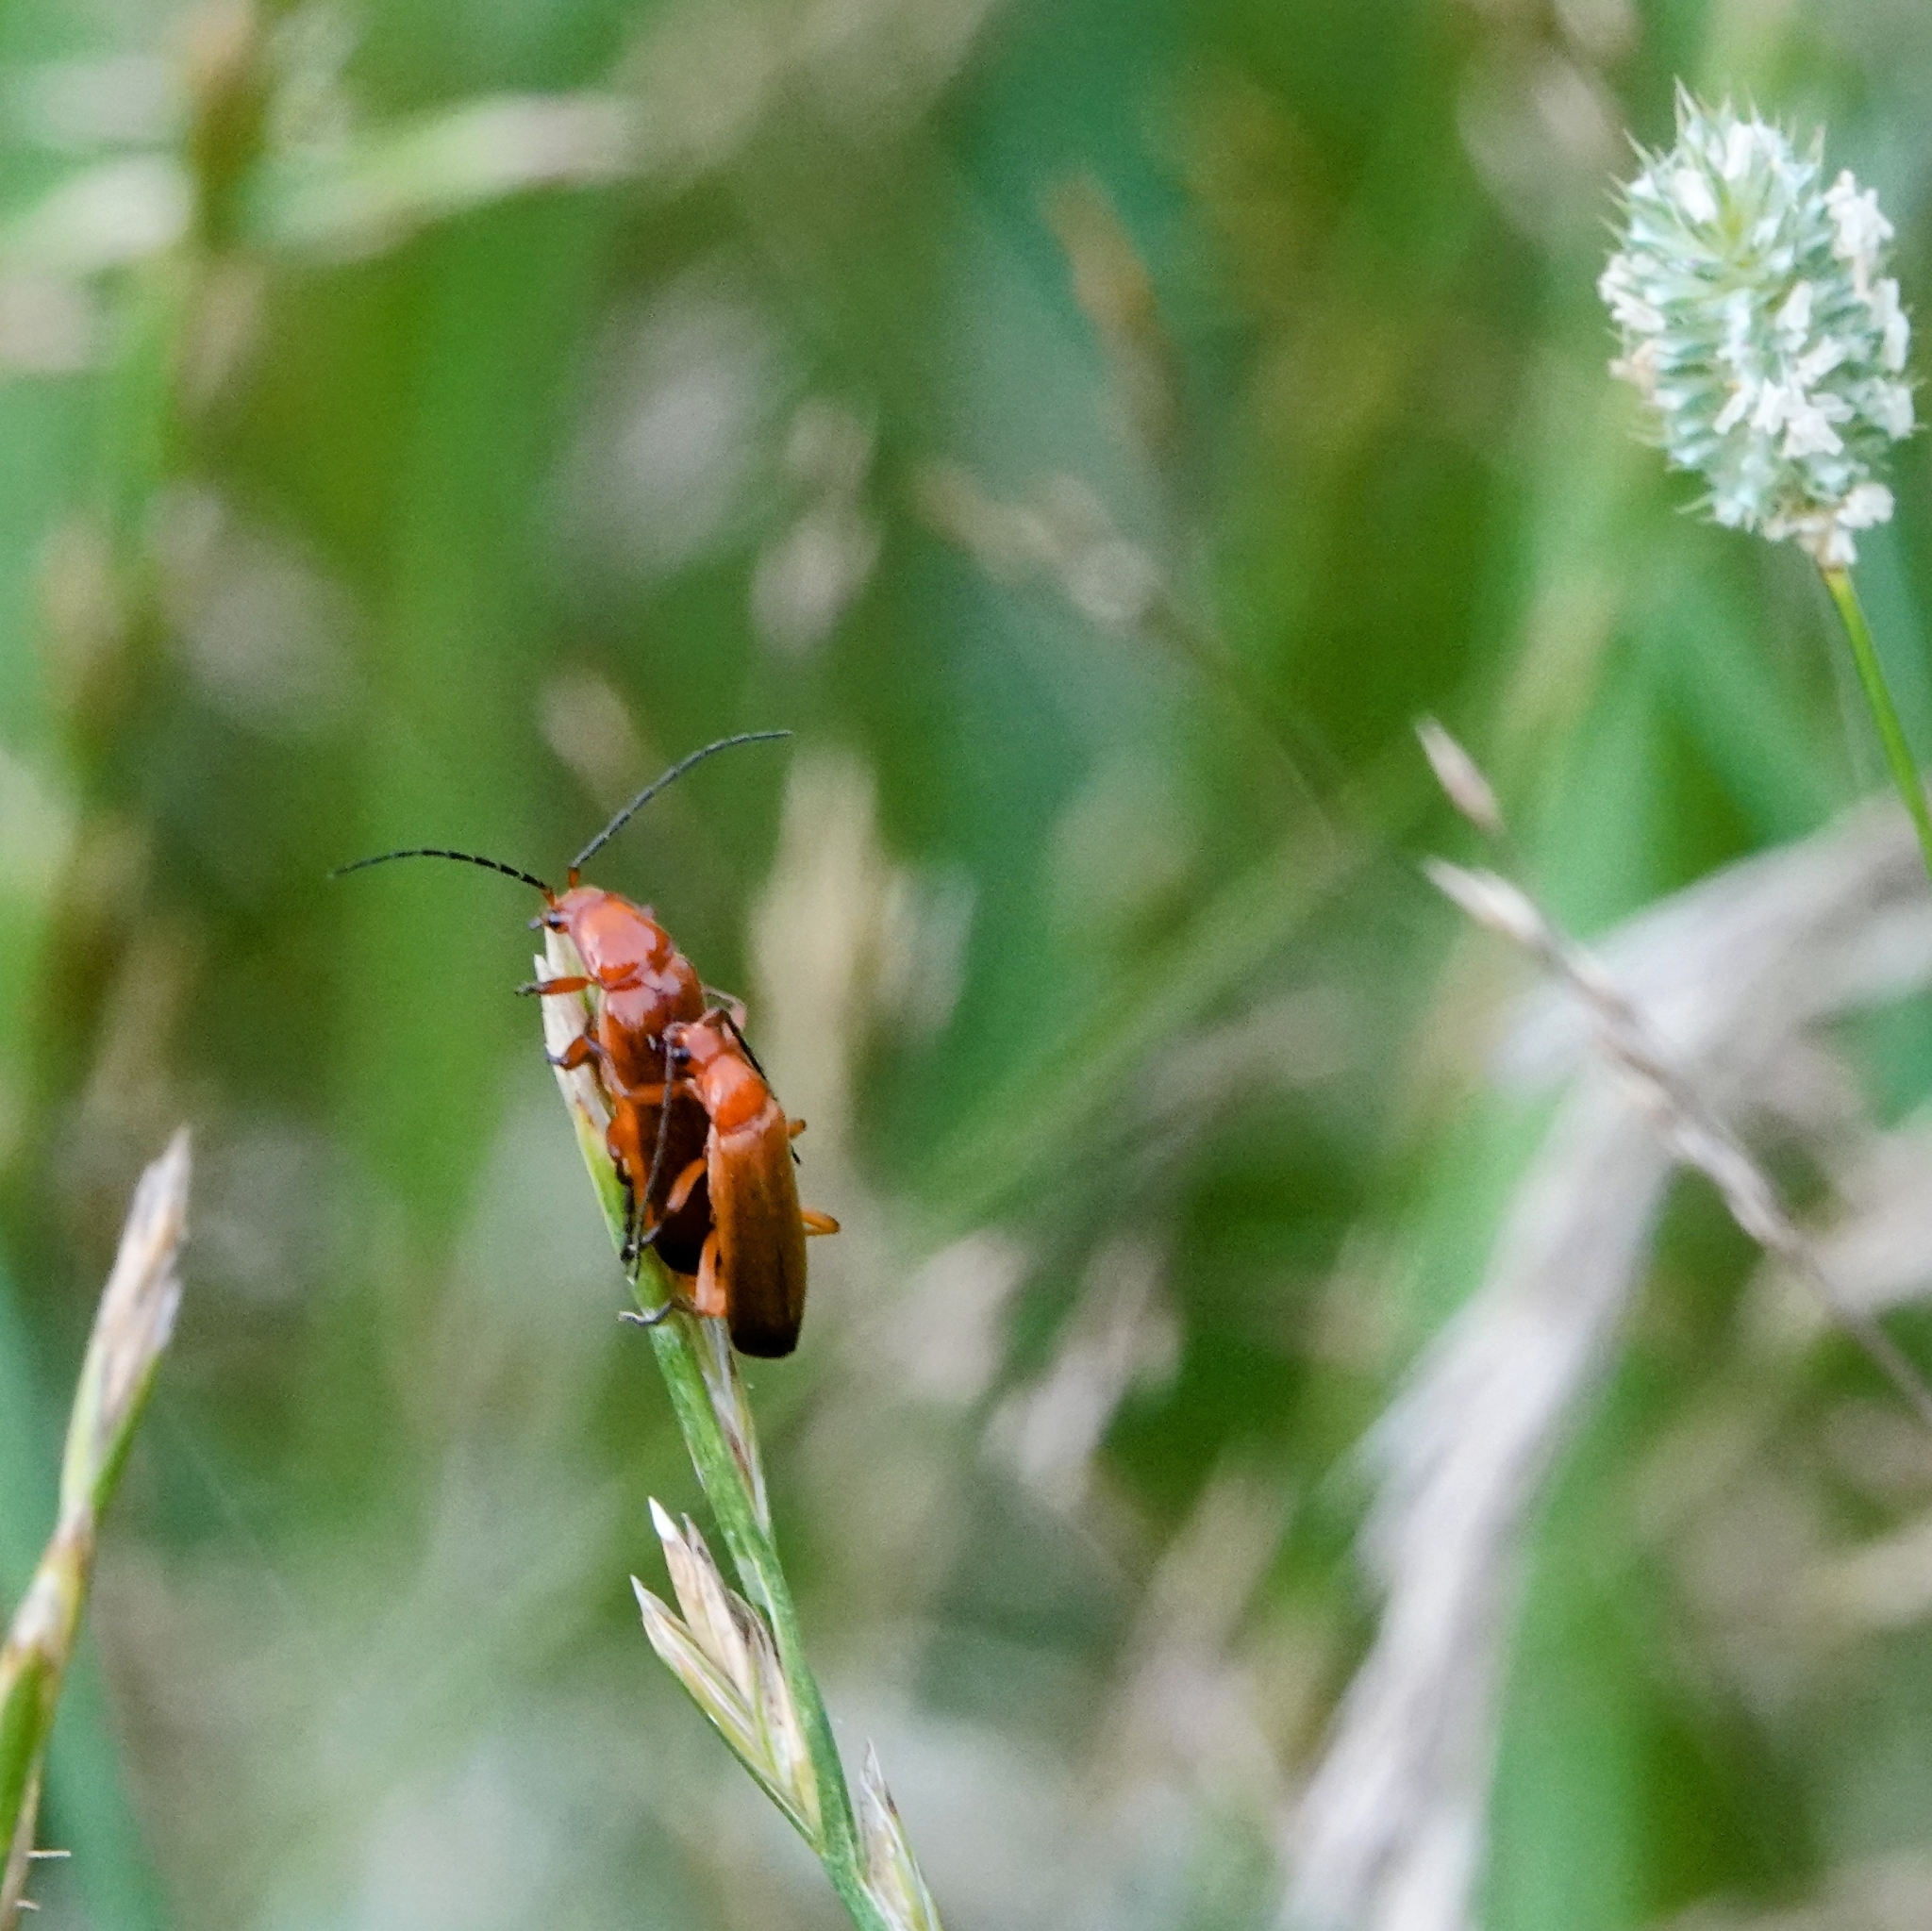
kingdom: Animalia
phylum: Arthropoda
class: Insecta
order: Coleoptera
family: Cantharidae
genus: Rhagonycha
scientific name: Rhagonycha fulva
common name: Common red soldier beetle
